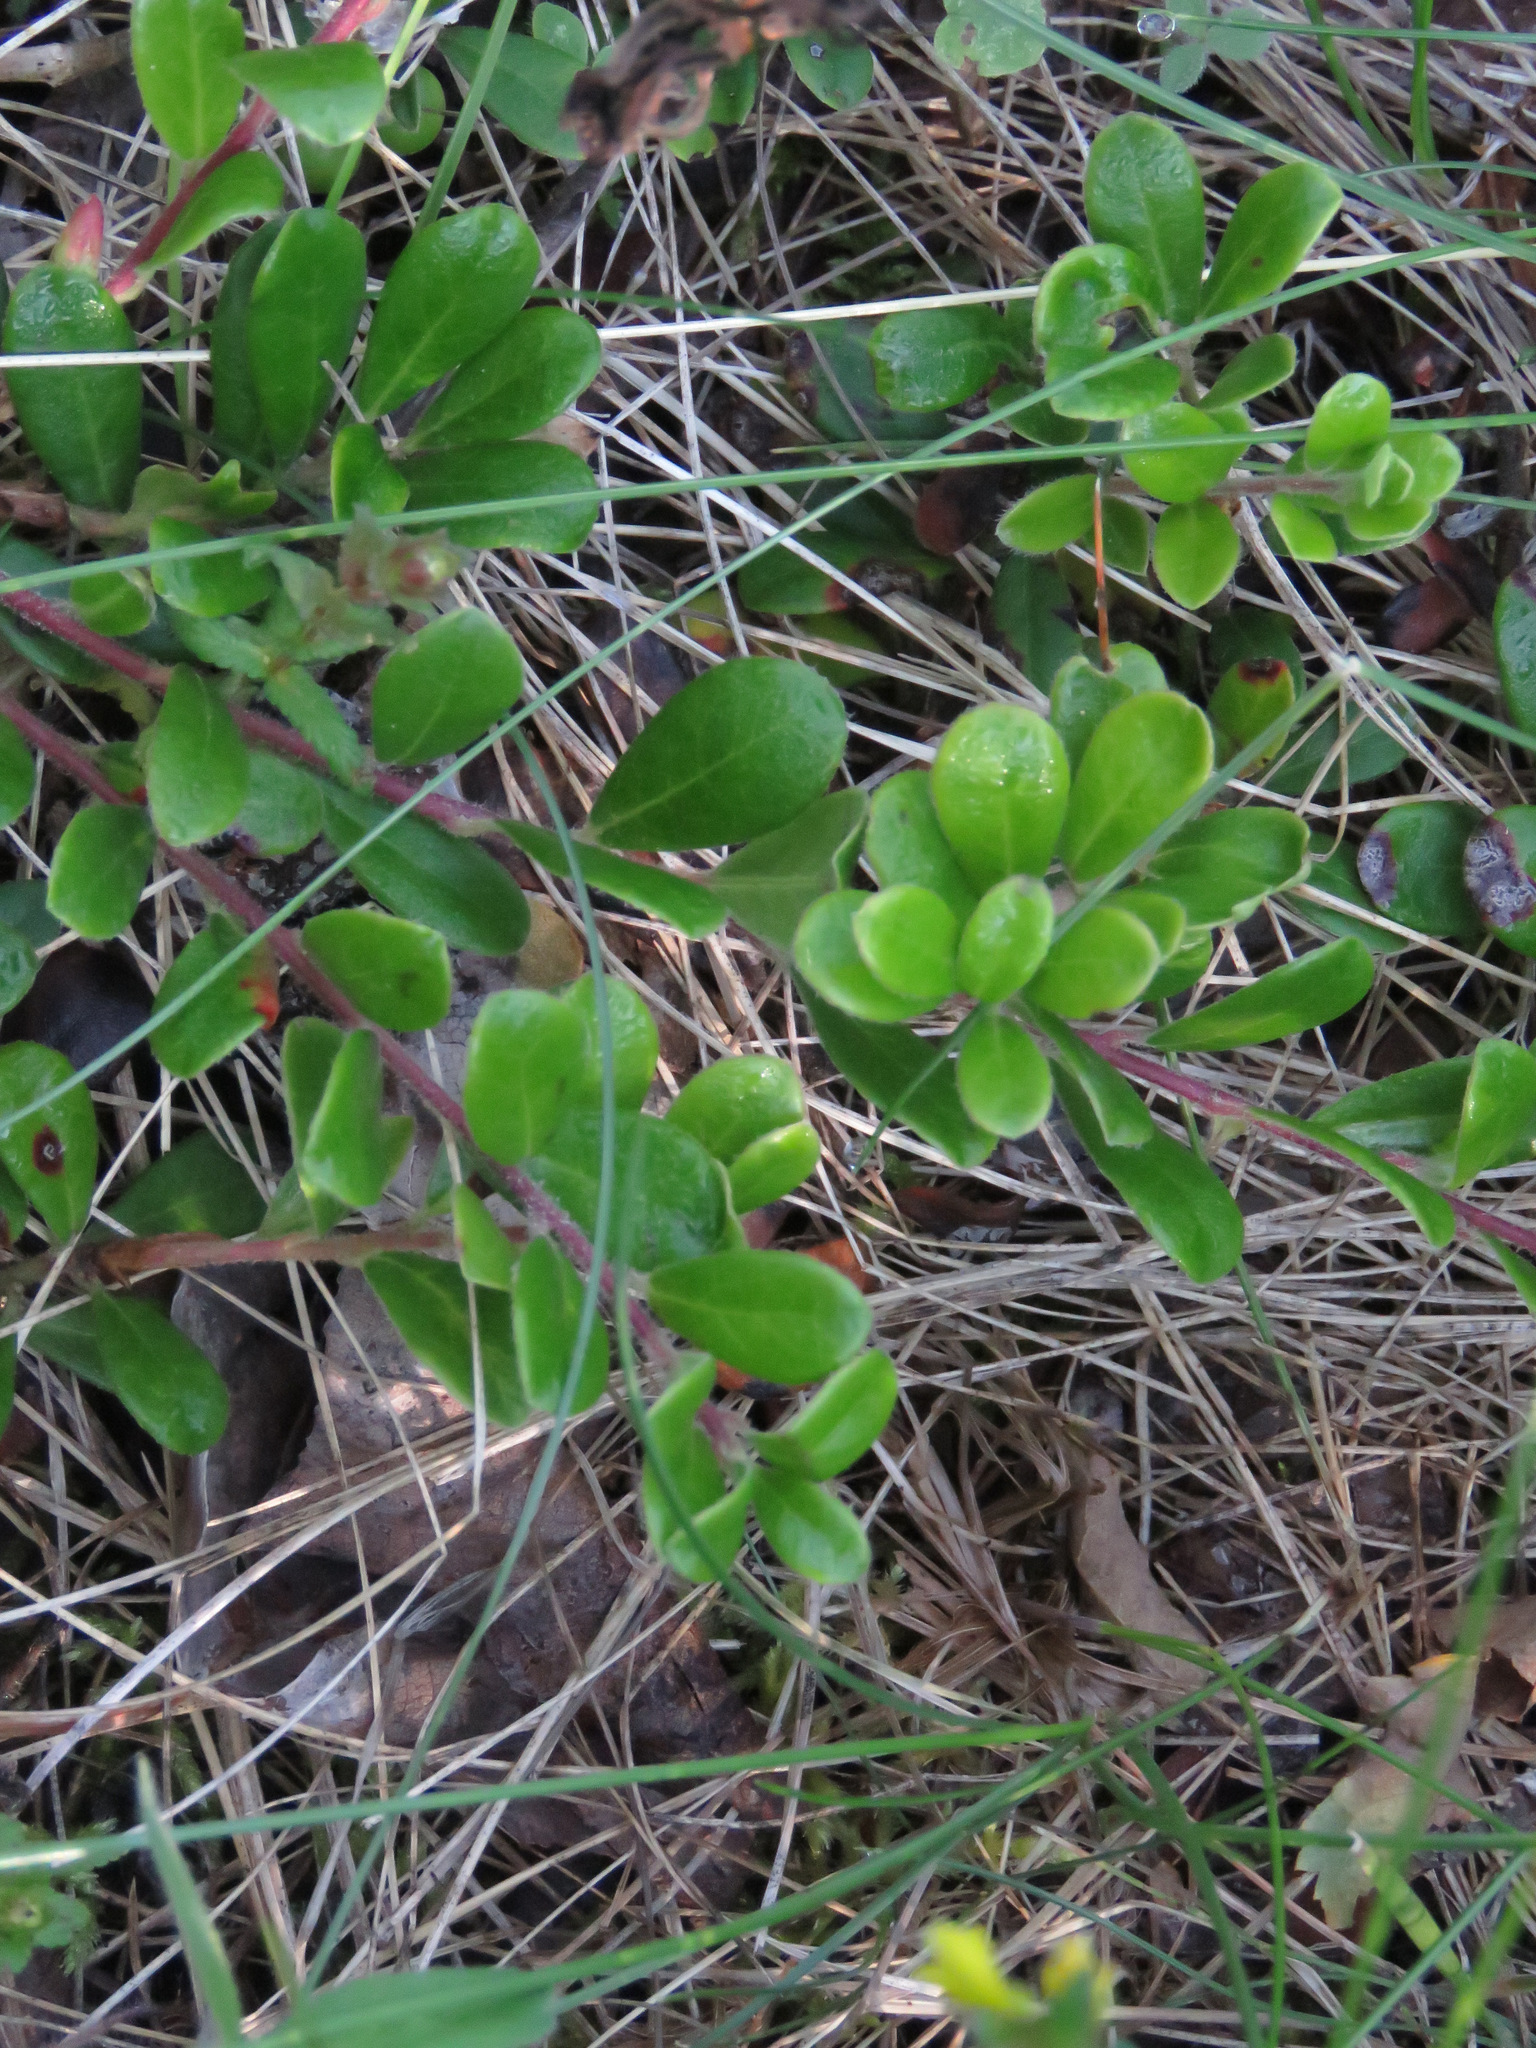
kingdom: Plantae
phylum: Tracheophyta
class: Magnoliopsida
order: Ericales
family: Ericaceae
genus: Arctostaphylos
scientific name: Arctostaphylos uva-ursi
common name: Bearberry
